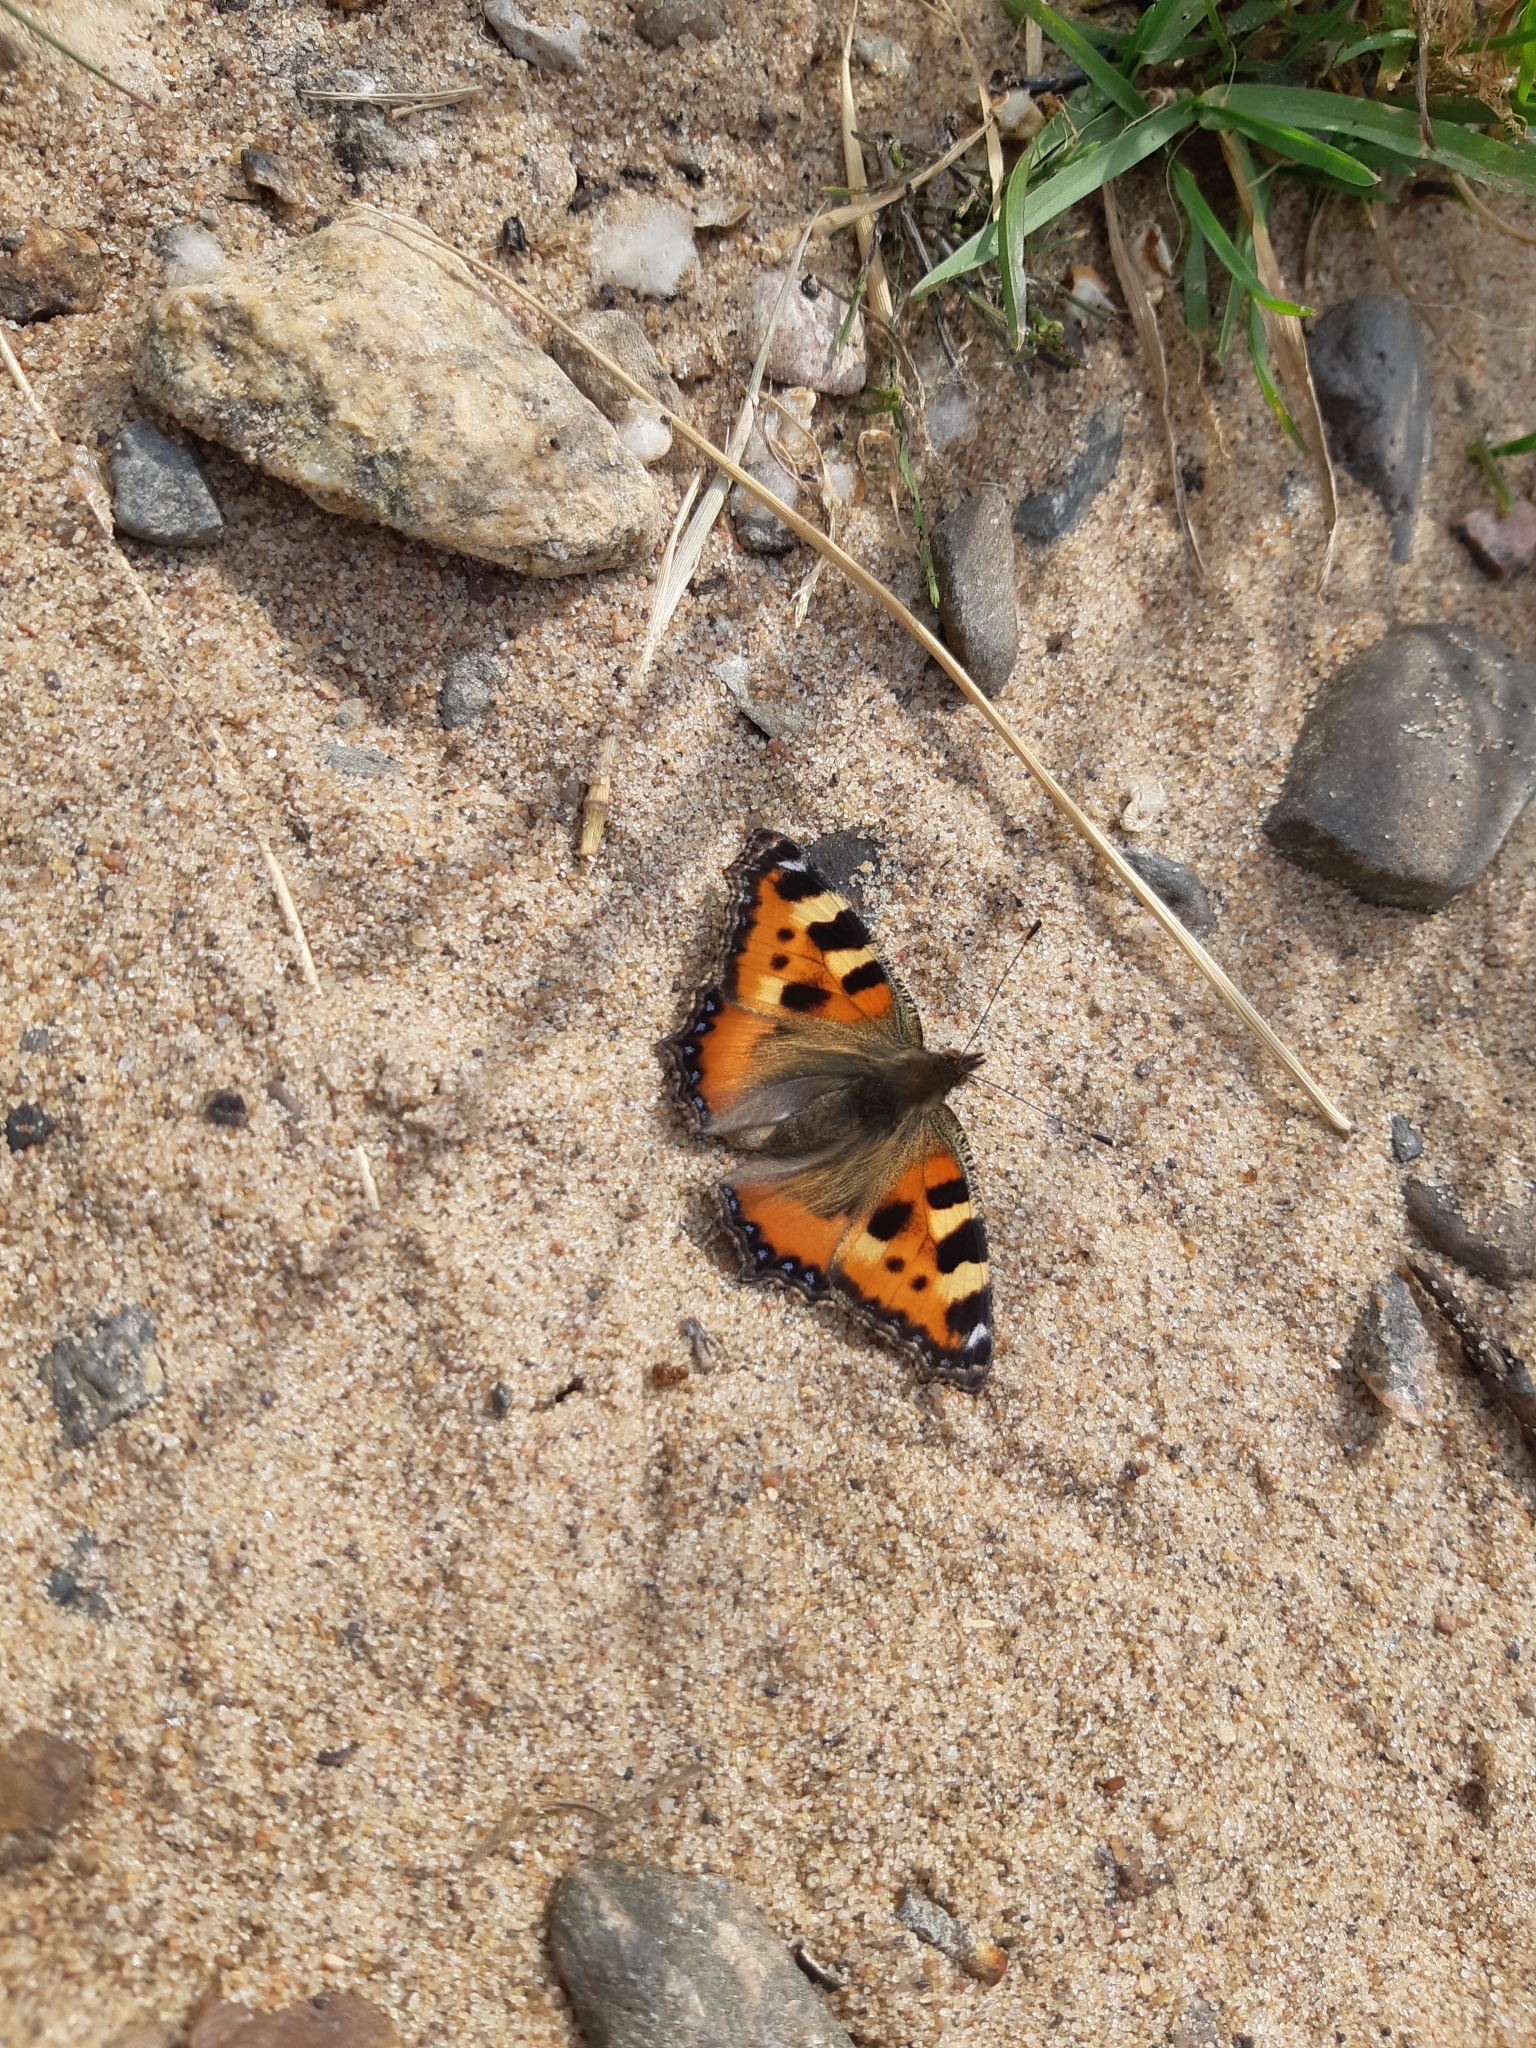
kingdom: Animalia
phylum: Arthropoda
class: Insecta
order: Lepidoptera
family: Nymphalidae
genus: Aglais
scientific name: Aglais urticae
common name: Small tortoiseshell
